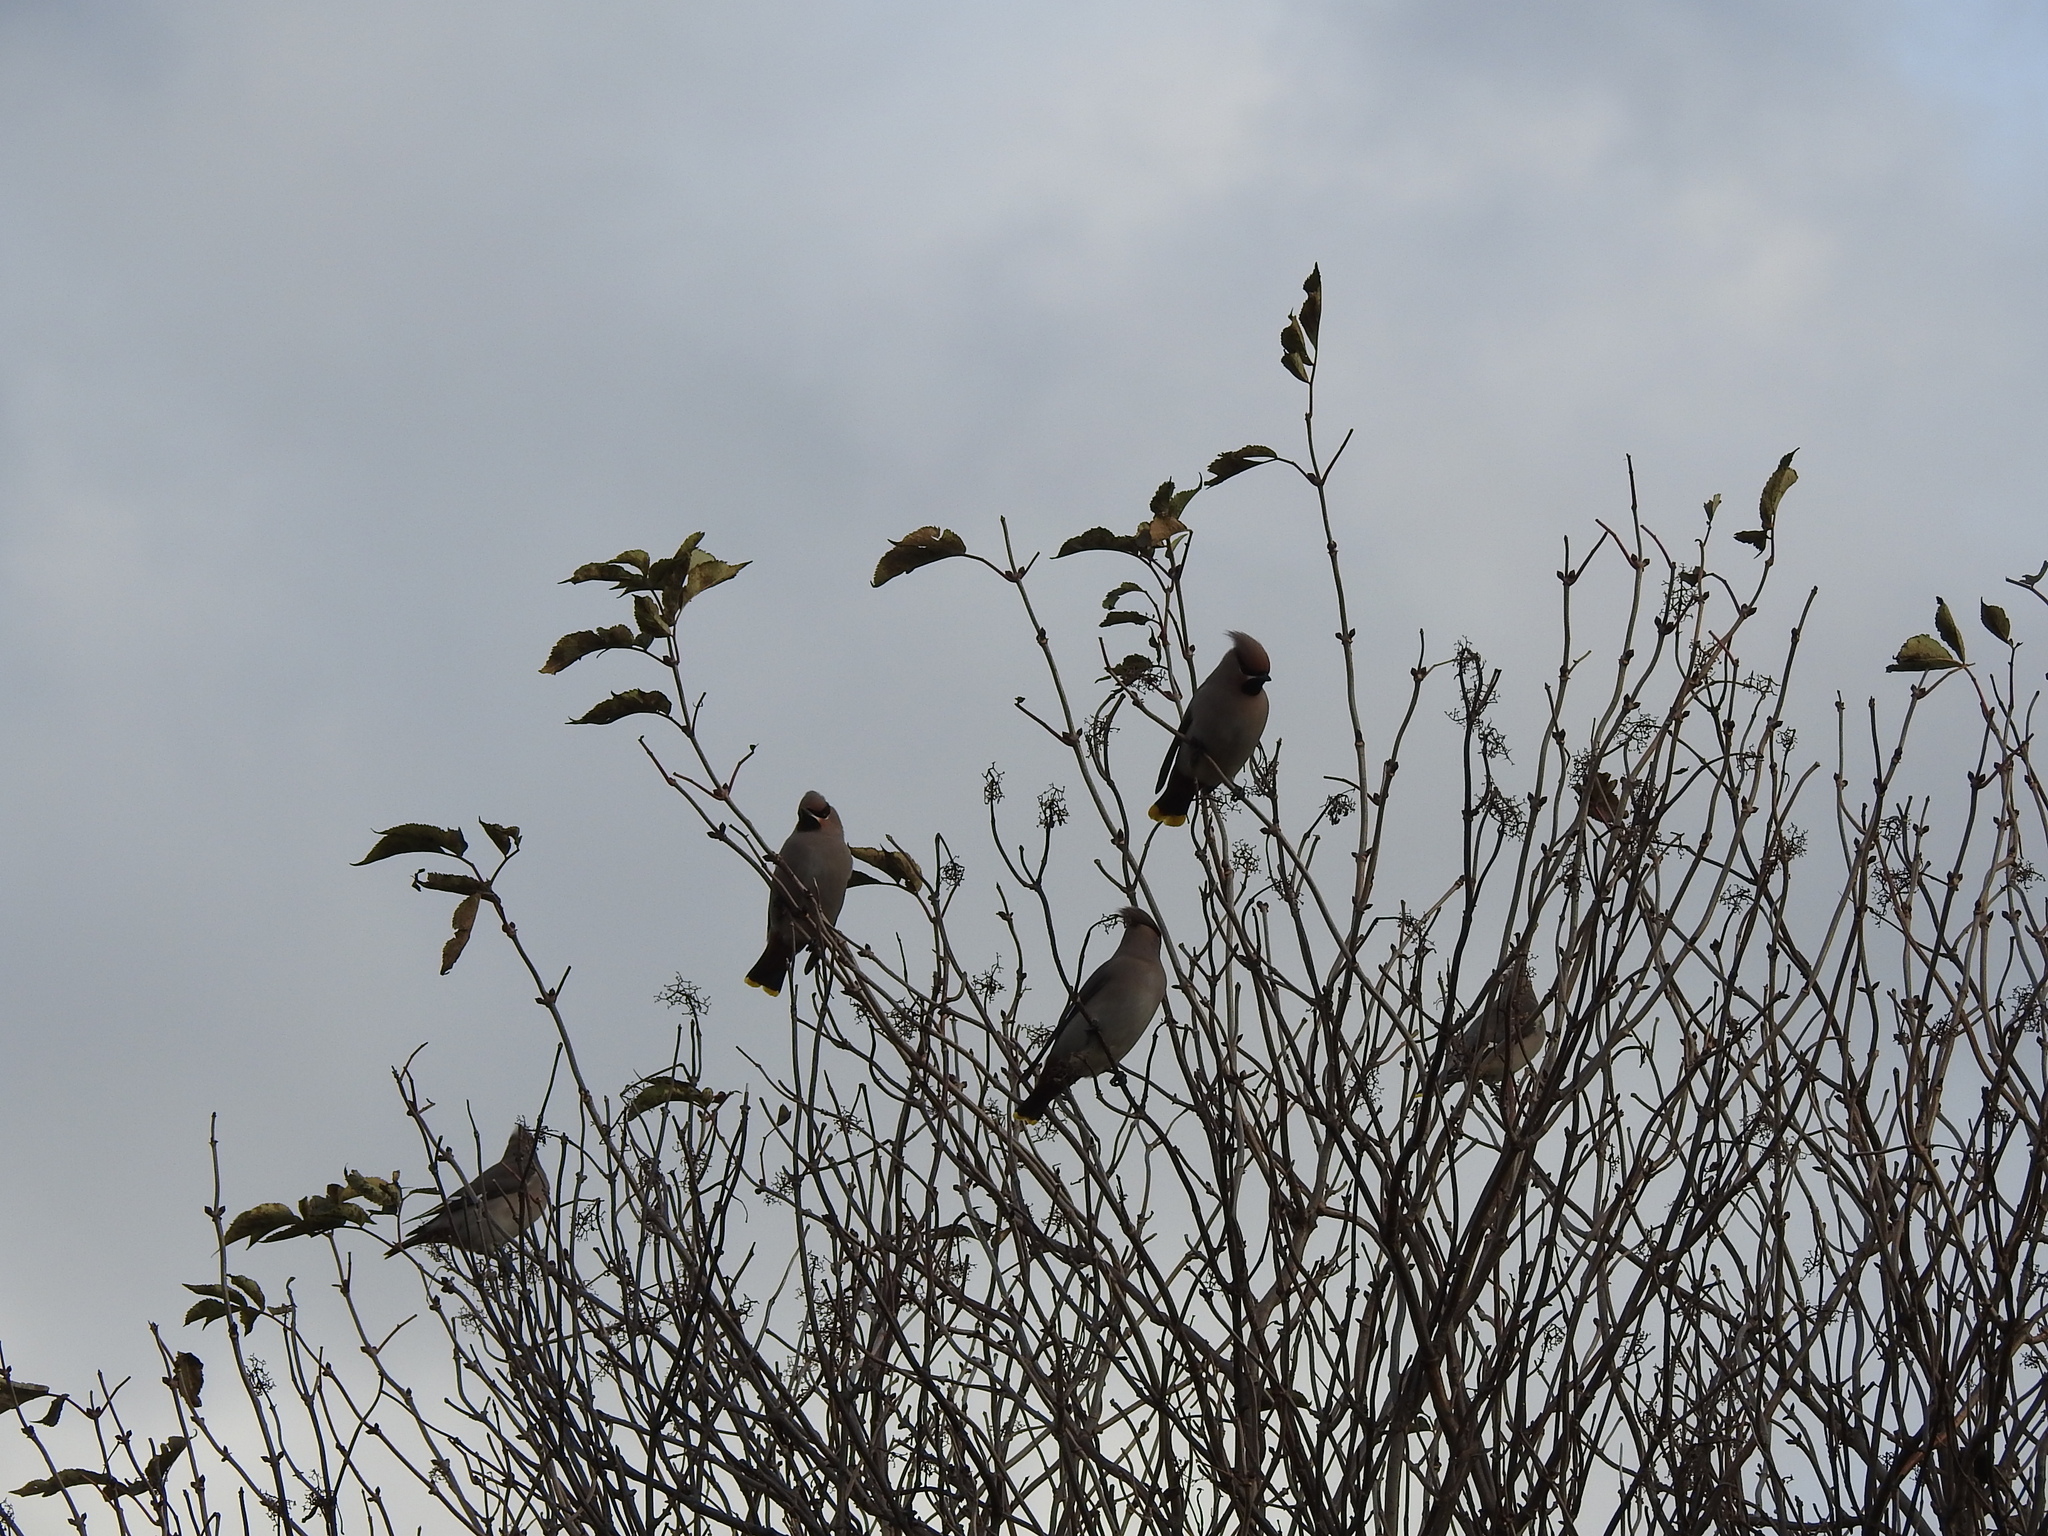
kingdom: Animalia
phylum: Chordata
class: Aves
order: Passeriformes
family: Bombycillidae
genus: Bombycilla
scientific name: Bombycilla garrulus
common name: Bohemian waxwing
